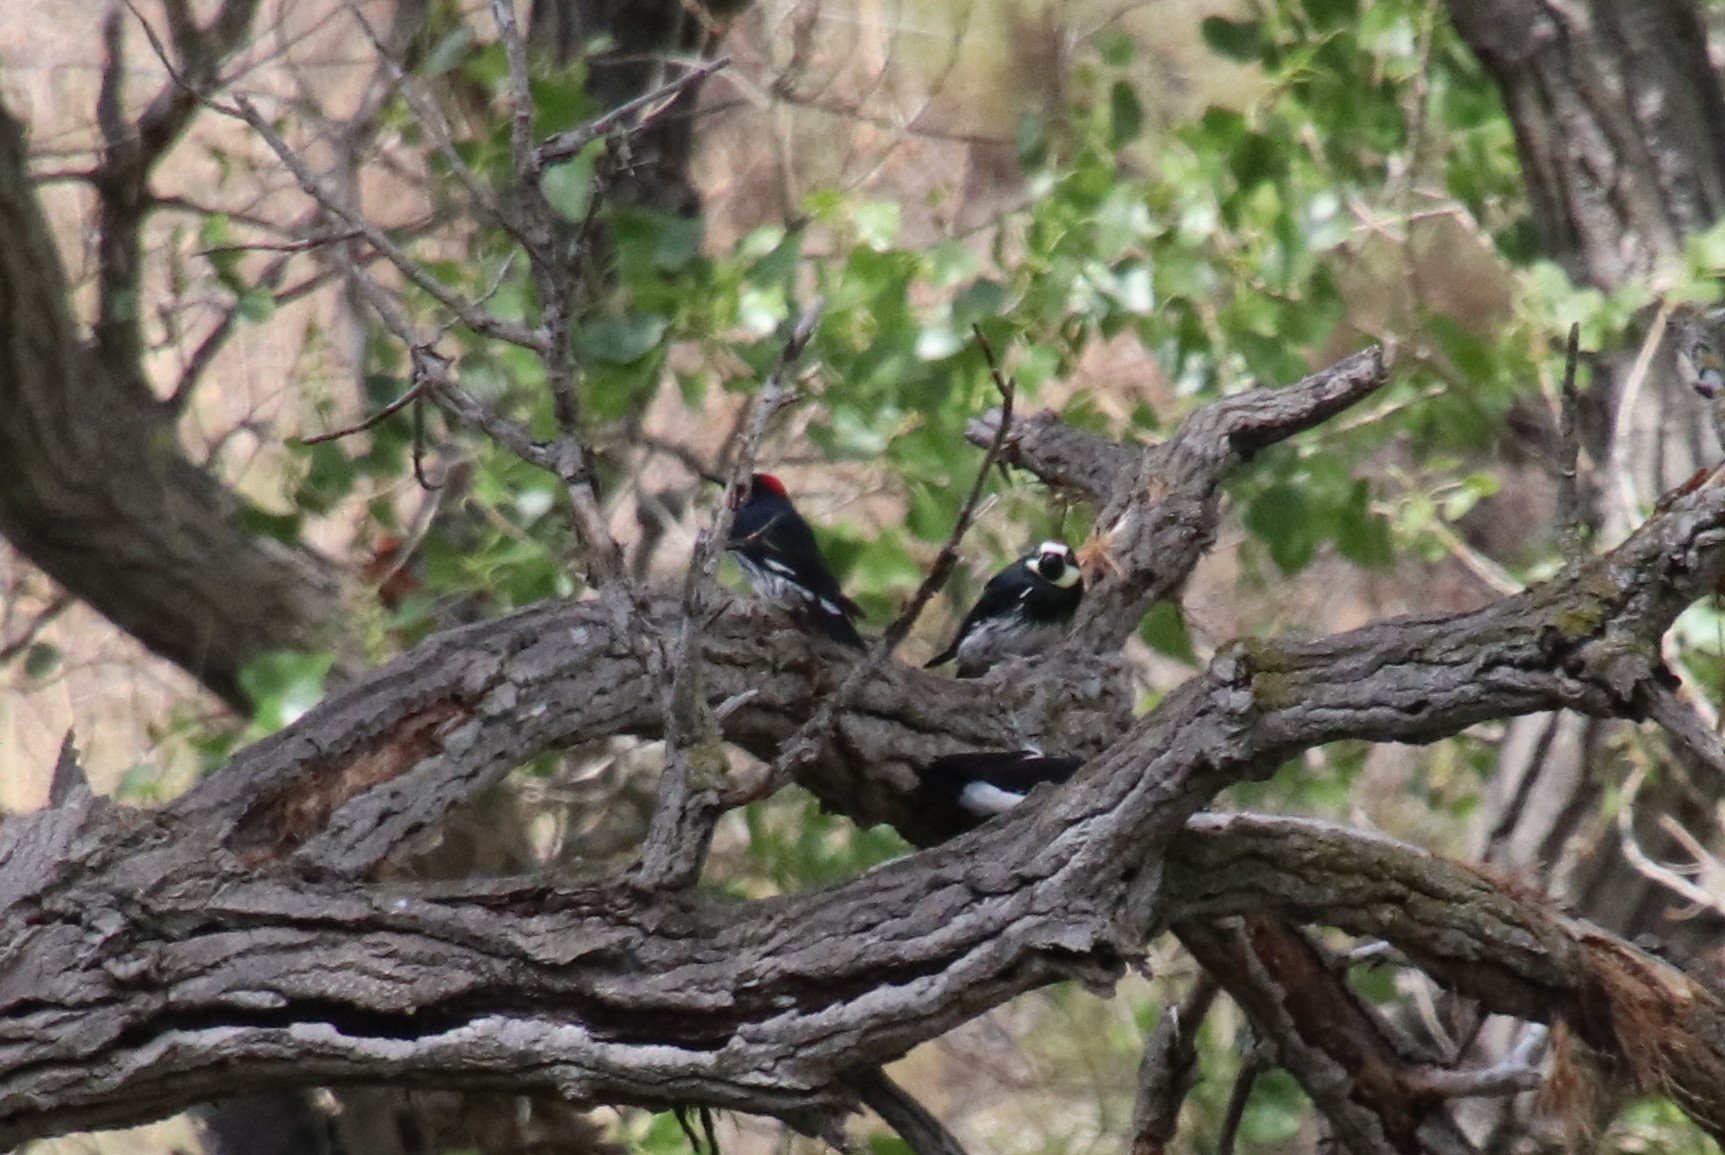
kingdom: Animalia
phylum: Chordata
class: Aves
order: Piciformes
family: Picidae
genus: Melanerpes
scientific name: Melanerpes formicivorus
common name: Acorn woodpecker
